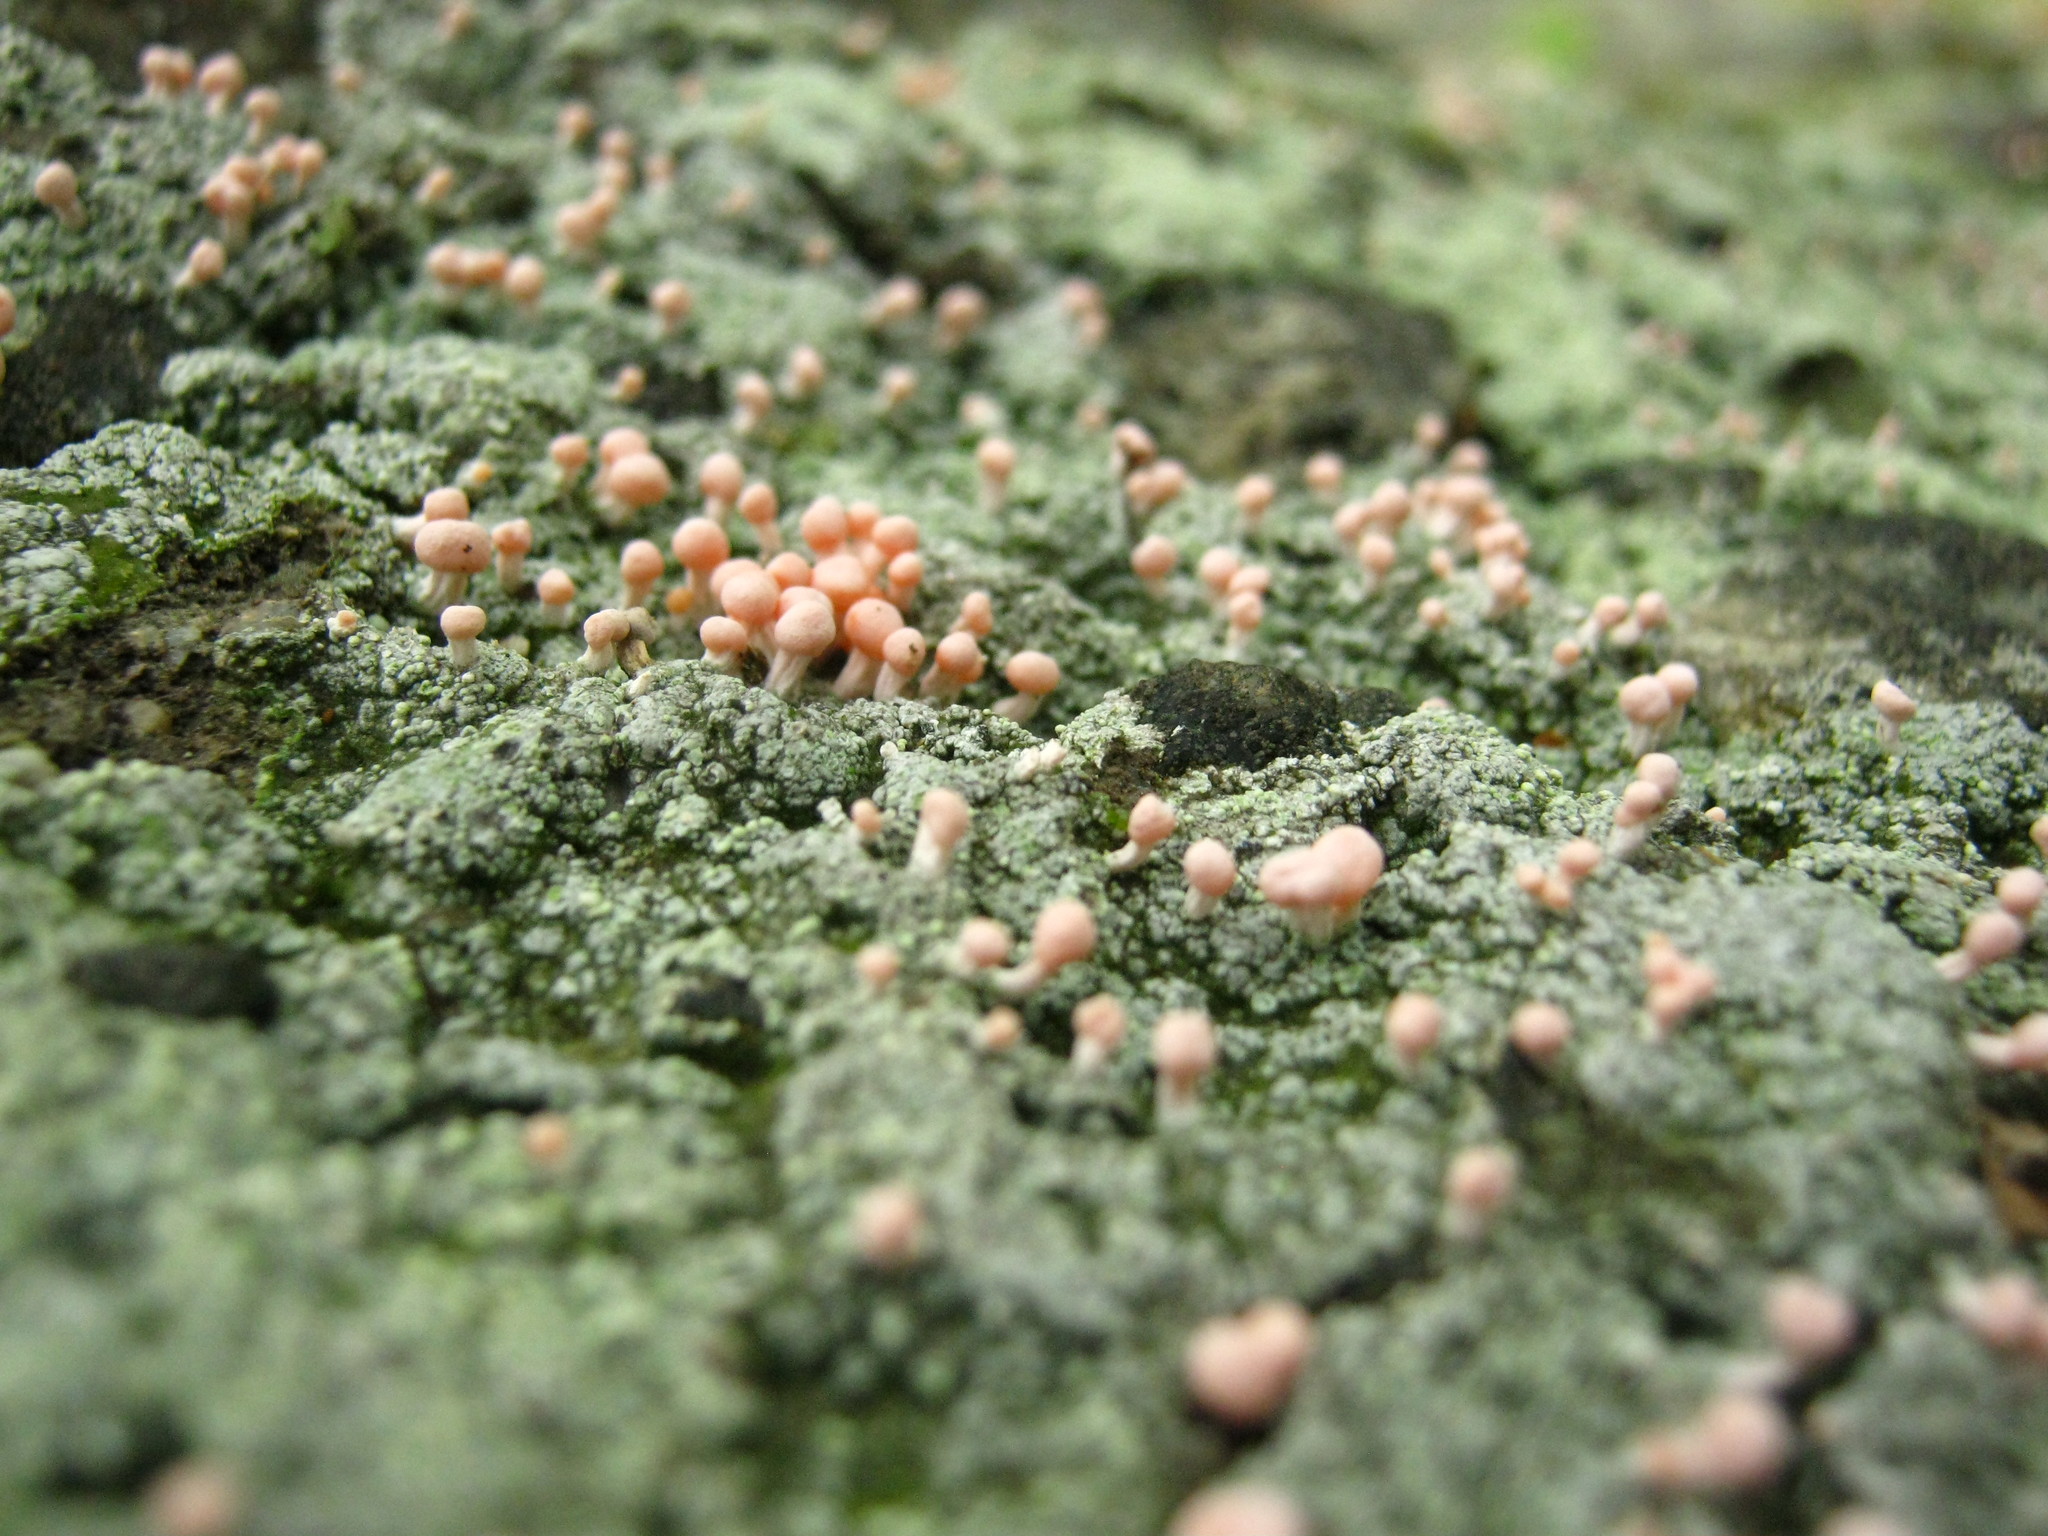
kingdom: Fungi
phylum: Ascomycota
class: Lecanoromycetes
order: Pertusariales
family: Icmadophilaceae
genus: Dibaeis
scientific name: Dibaeis baeomyces
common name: Pink earth lichen
